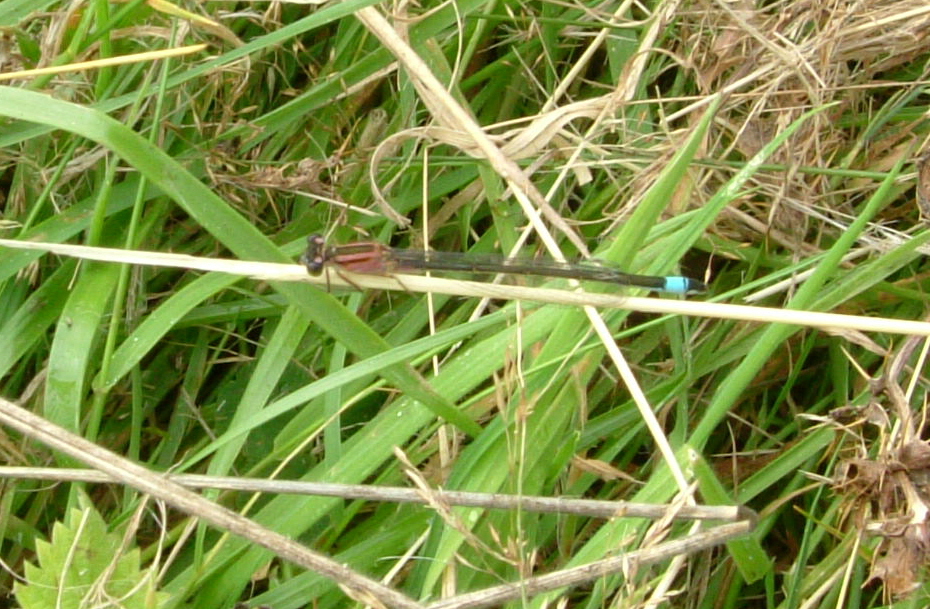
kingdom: Animalia
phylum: Arthropoda
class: Insecta
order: Odonata
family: Coenagrionidae
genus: Ischnura
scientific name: Ischnura elegans
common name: Blue-tailed damselfly
